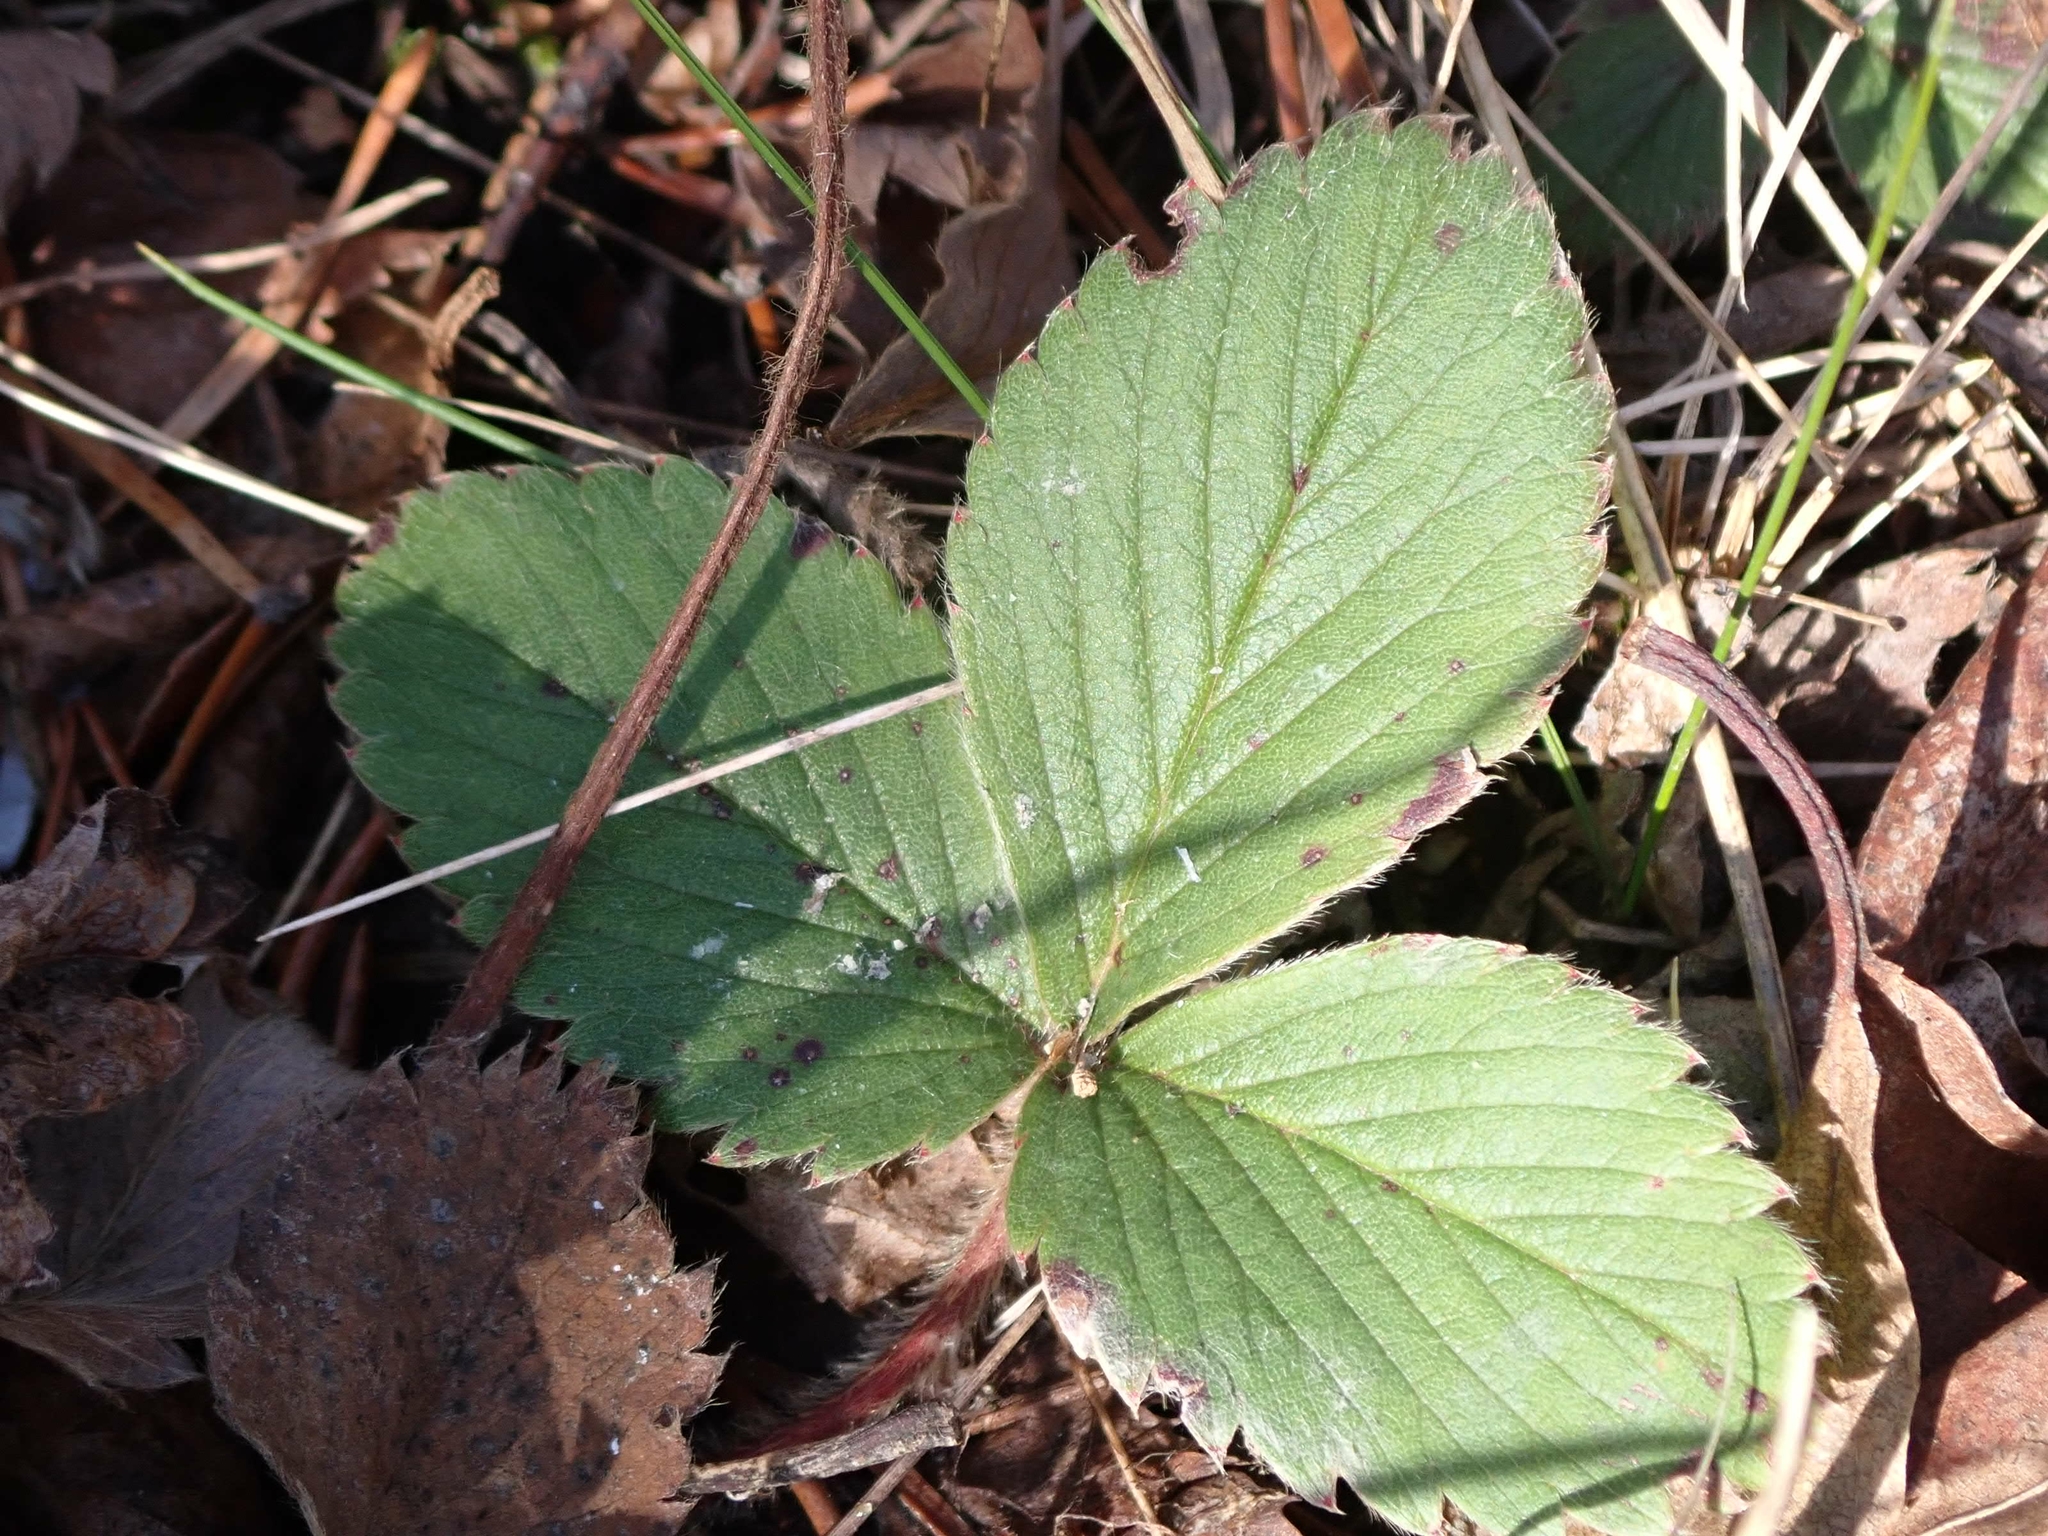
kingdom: Plantae
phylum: Tracheophyta
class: Magnoliopsida
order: Rosales
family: Rosaceae
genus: Fragaria
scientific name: Fragaria virginiana
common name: Thickleaved wild strawberry
